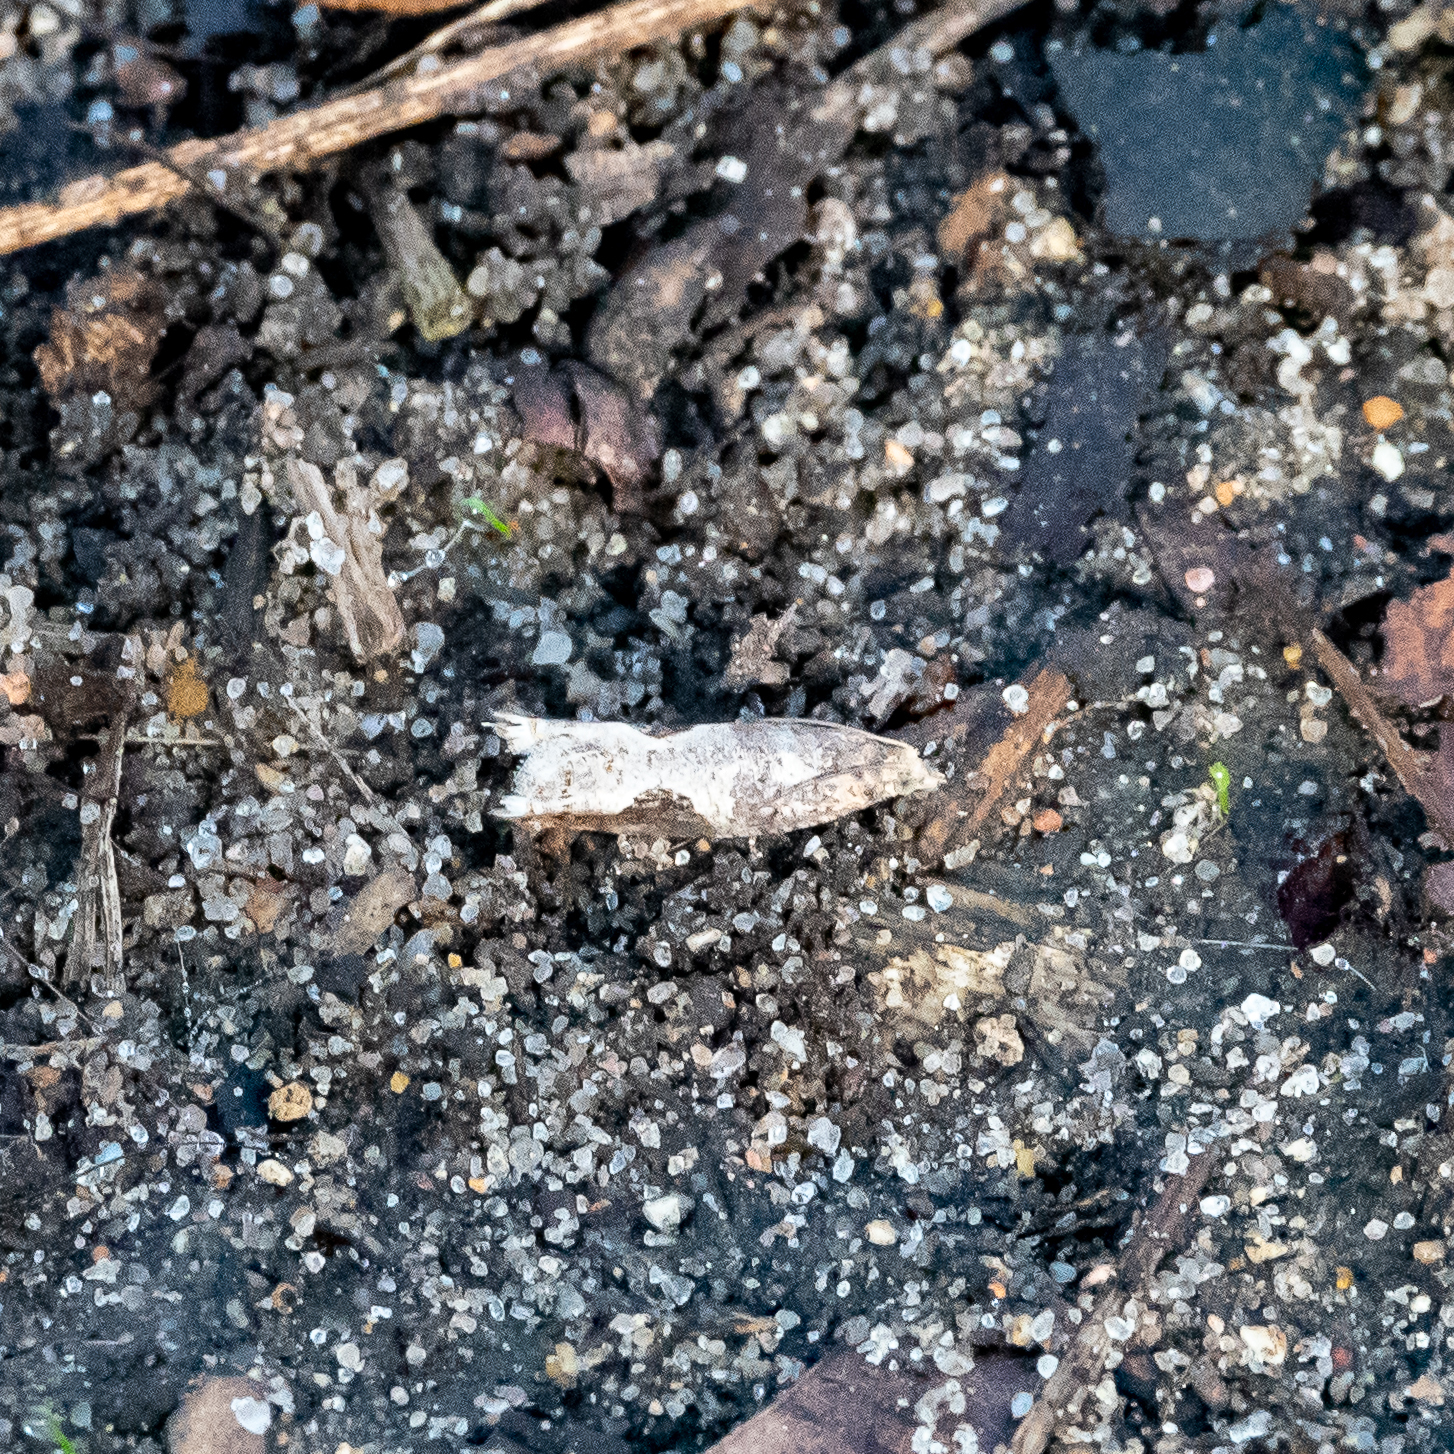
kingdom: Animalia
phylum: Arthropoda
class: Insecta
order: Lepidoptera
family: Tortricidae
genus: Pseudexentera
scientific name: Pseudexentera virginiana
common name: Virginia pseudexentera moth
